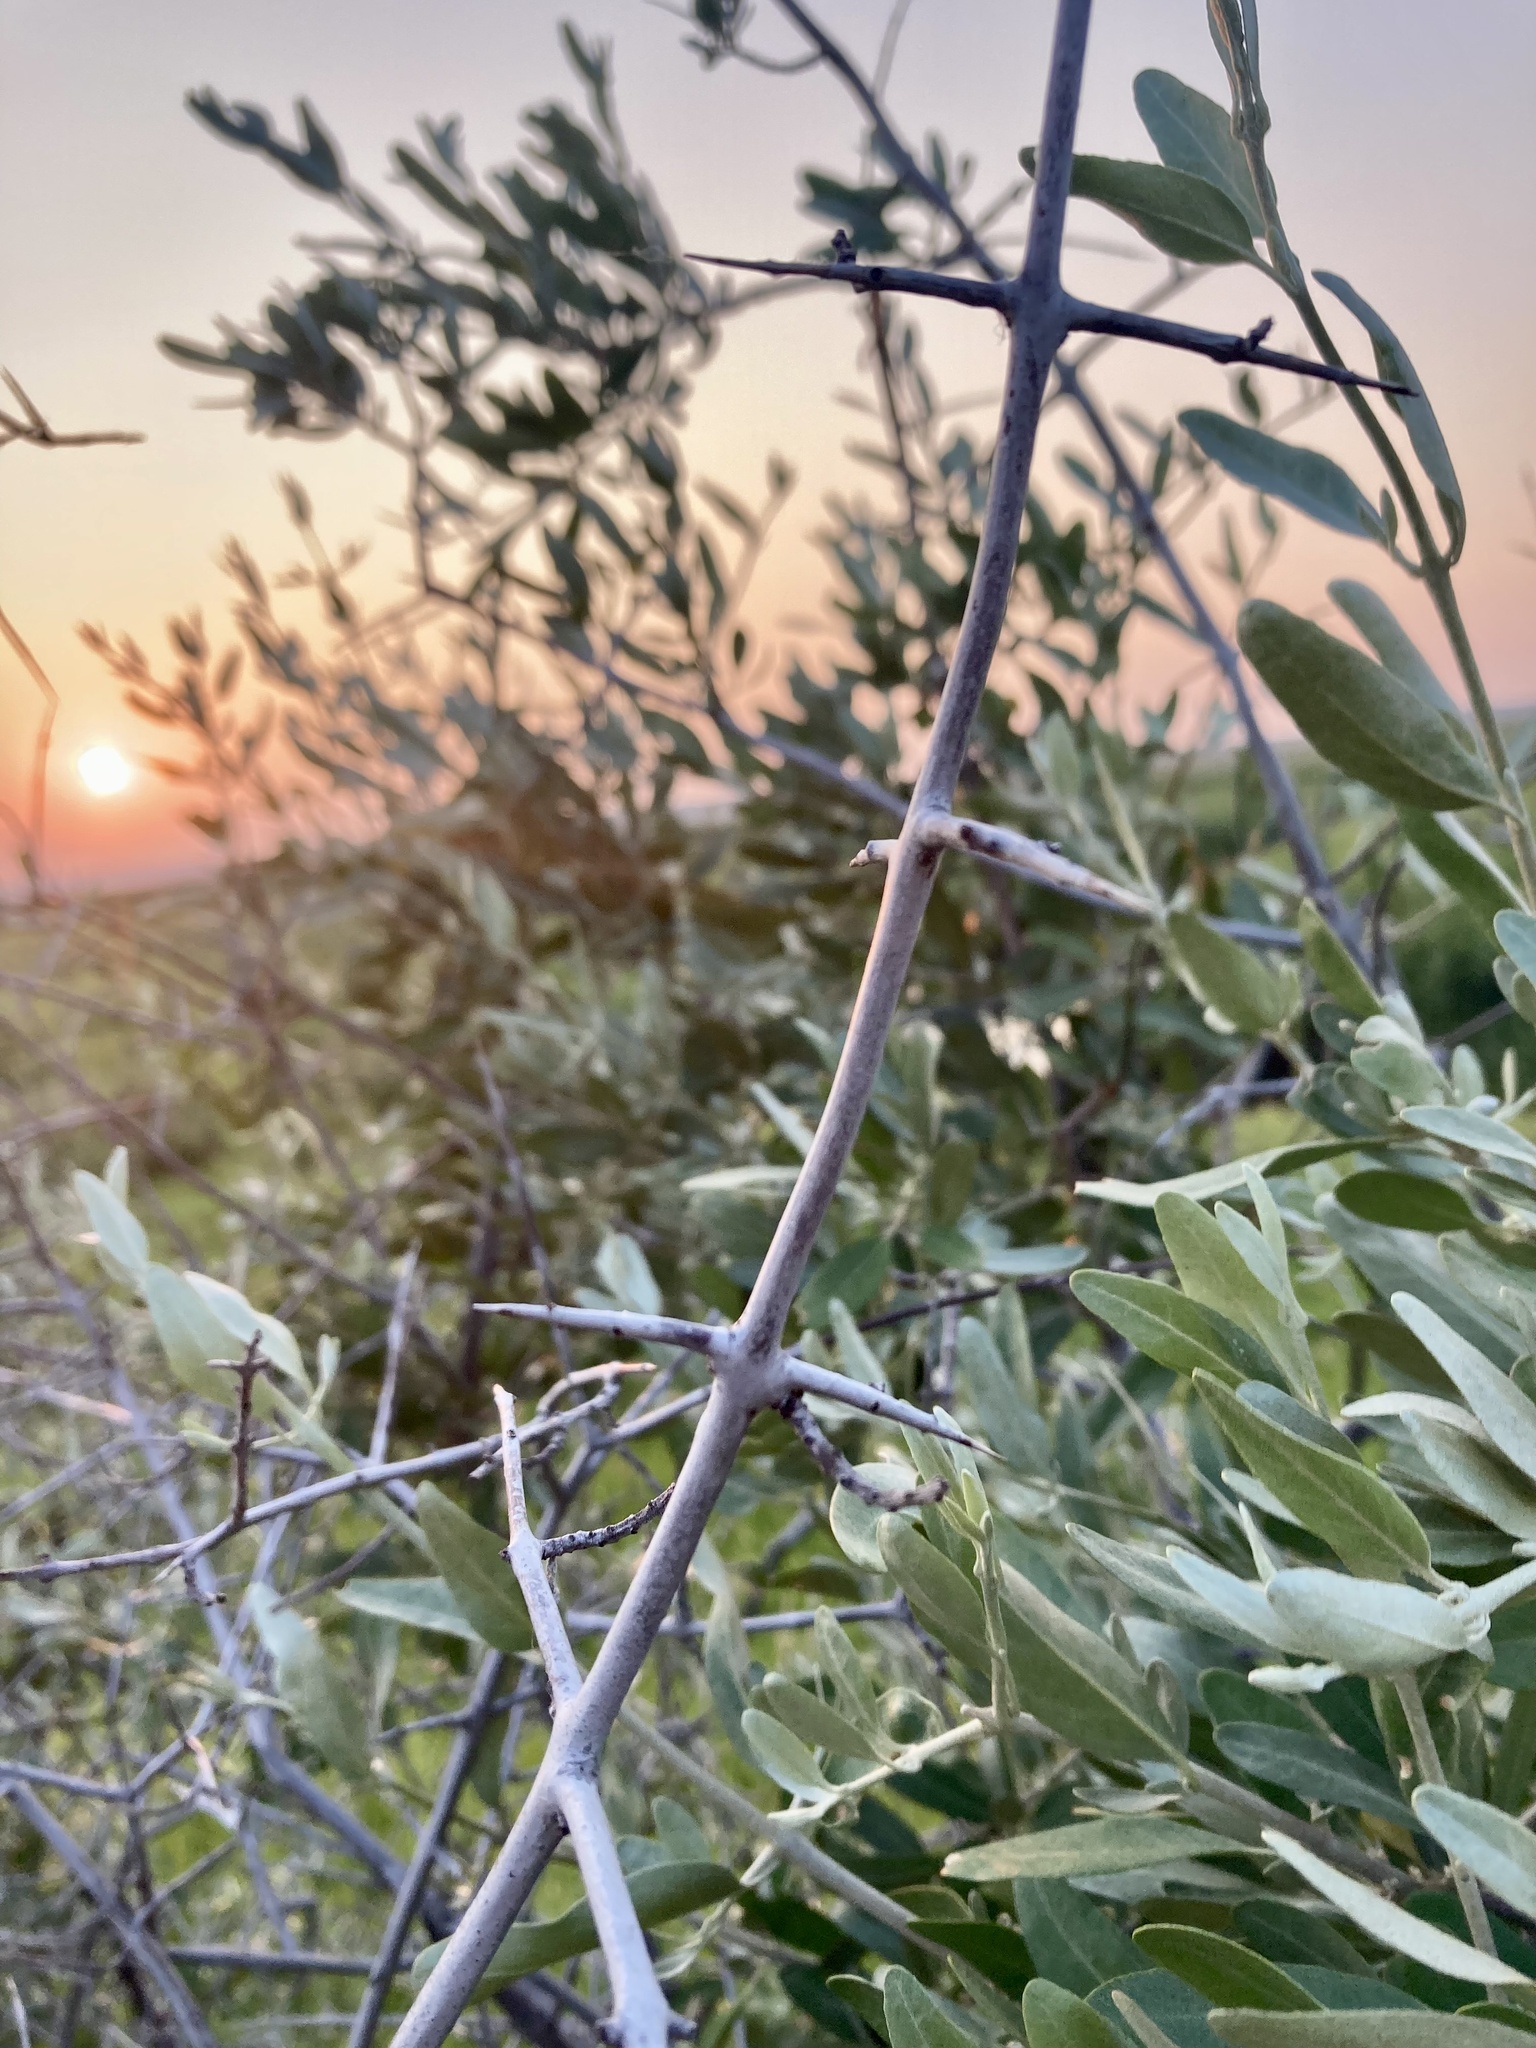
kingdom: Plantae
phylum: Tracheophyta
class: Magnoliopsida
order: Rosales
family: Elaeagnaceae
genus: Shepherdia
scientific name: Shepherdia argentea
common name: Silver buffaloberry
